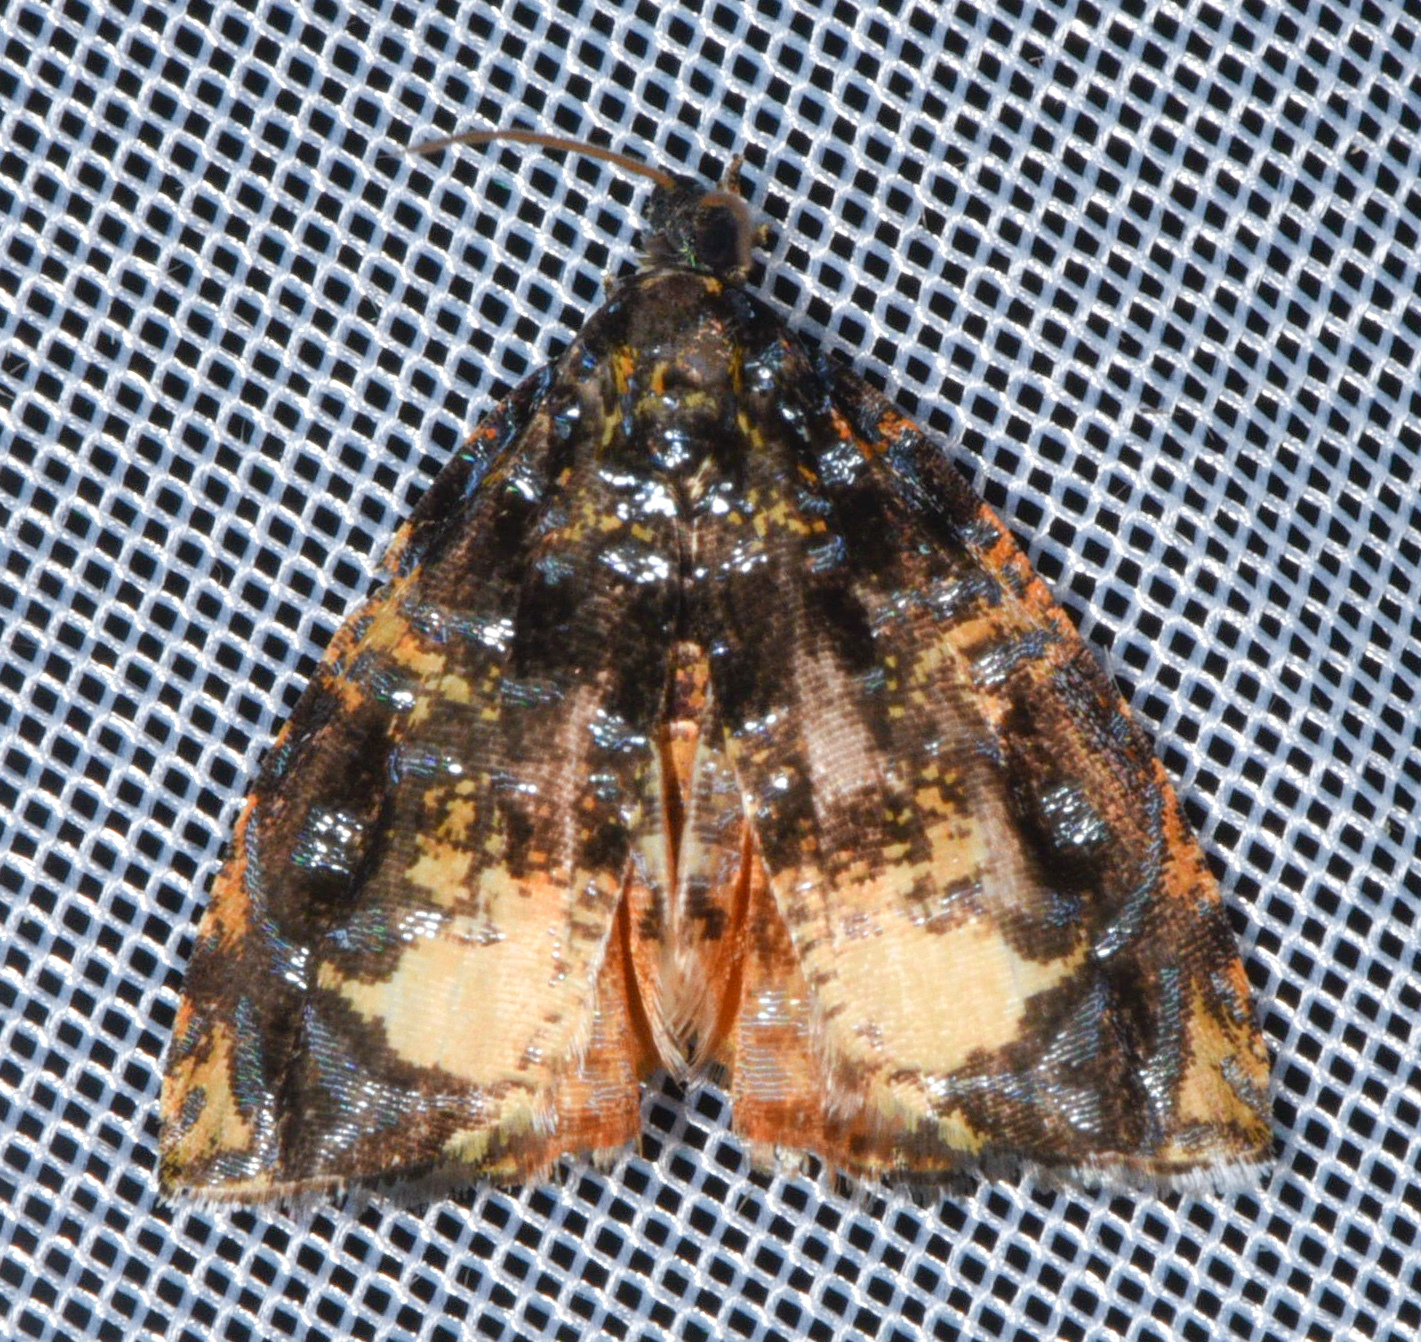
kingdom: Animalia
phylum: Arthropoda
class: Insecta
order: Lepidoptera
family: Tortricidae
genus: Mictopsichia
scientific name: Mictopsichia hubneriana
